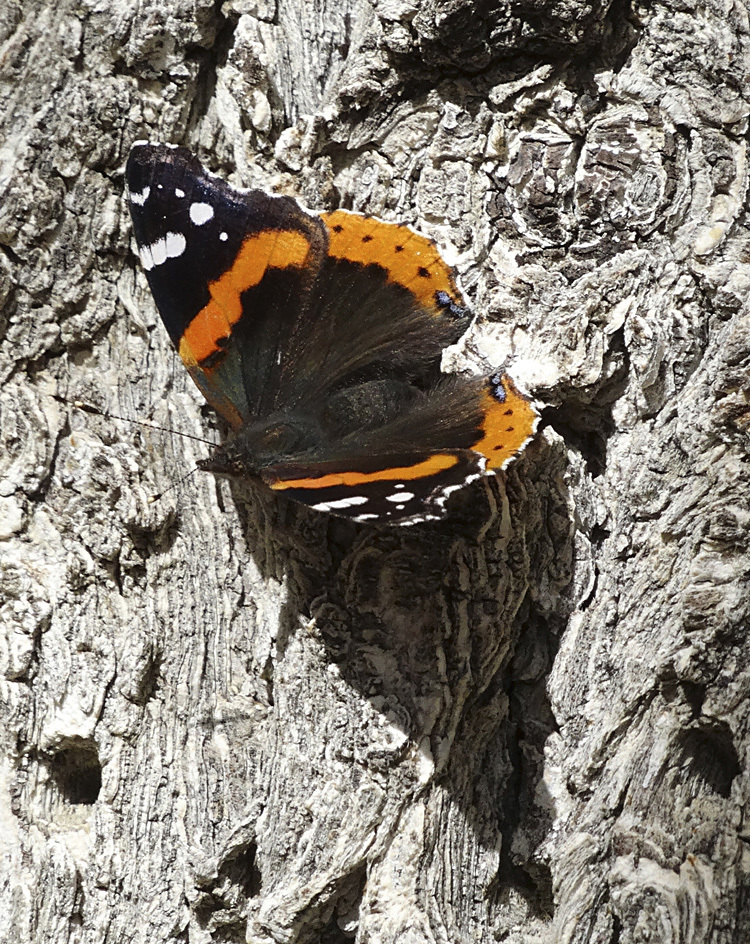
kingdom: Animalia
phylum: Arthropoda
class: Insecta
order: Lepidoptera
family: Nymphalidae
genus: Vanessa
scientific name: Vanessa atalanta
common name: Red admiral
